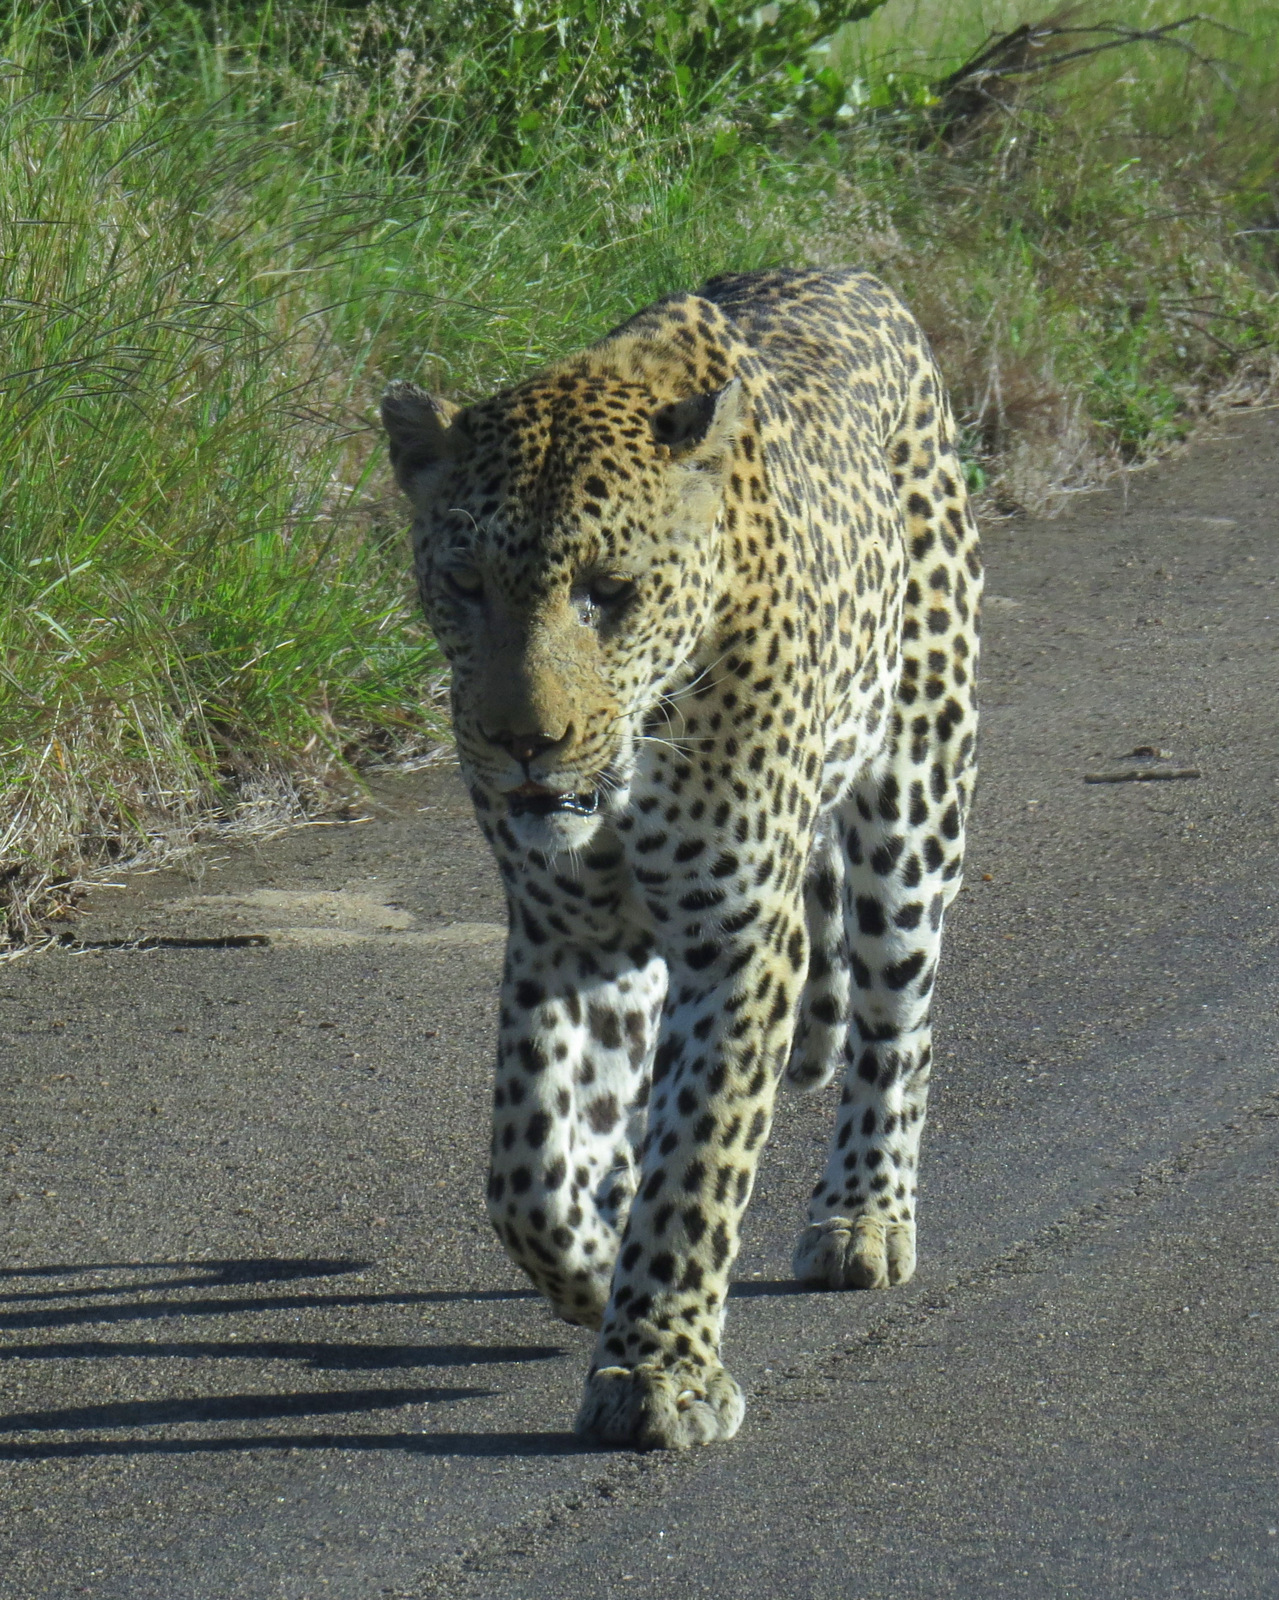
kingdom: Animalia
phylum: Chordata
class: Mammalia
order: Carnivora
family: Felidae
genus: Panthera
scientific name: Panthera pardus
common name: Leopard
